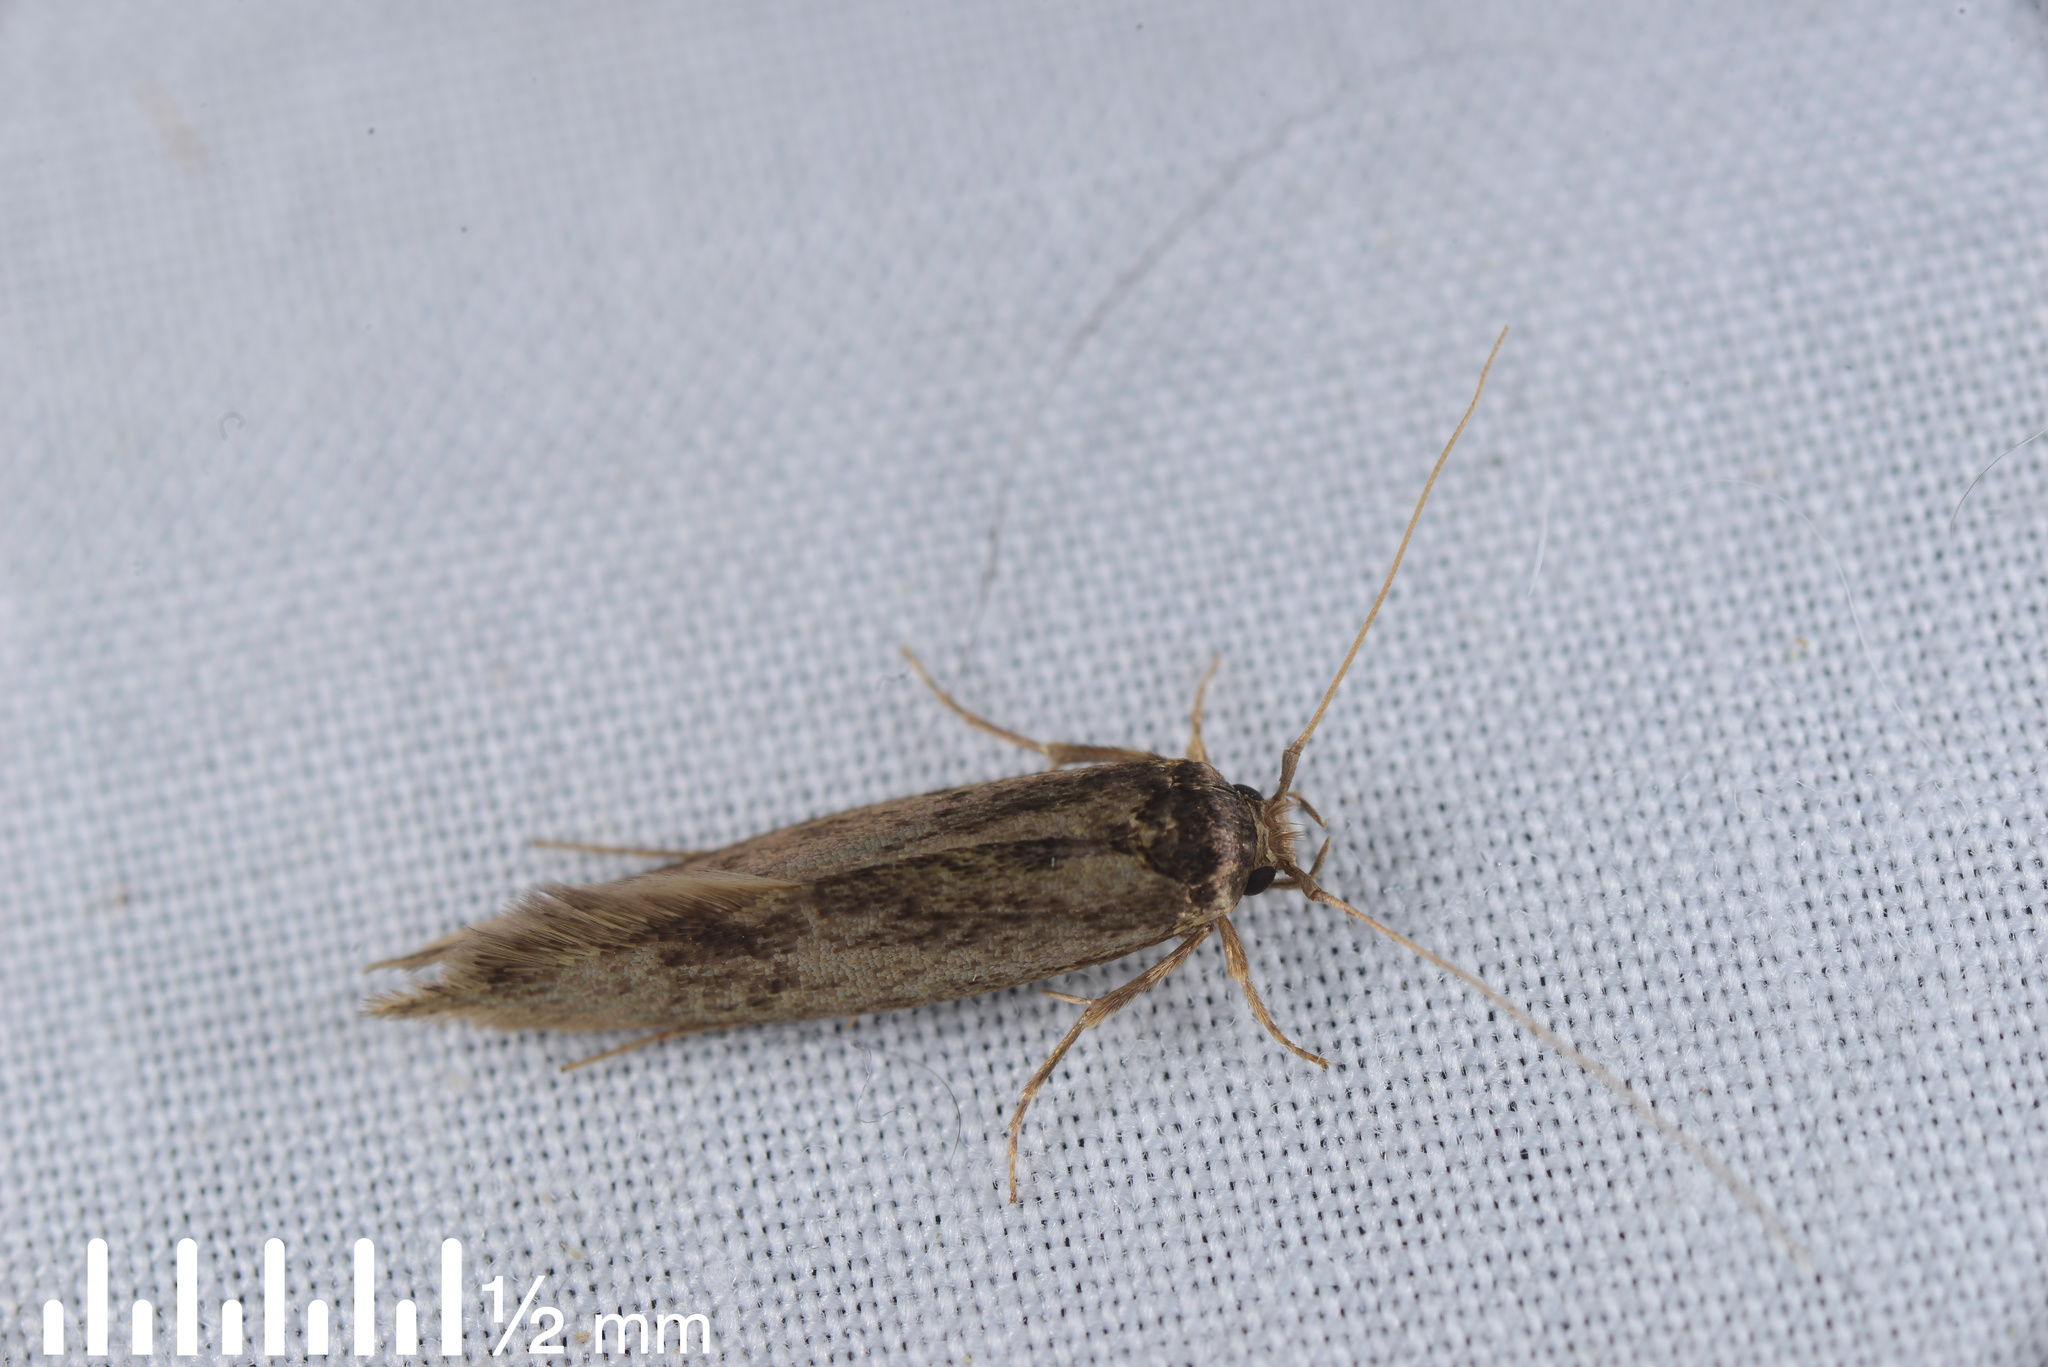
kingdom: Animalia
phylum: Arthropoda
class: Insecta
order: Lepidoptera
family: Tineidae
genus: Opogona
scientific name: Opogona omoscopa
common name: Moth
